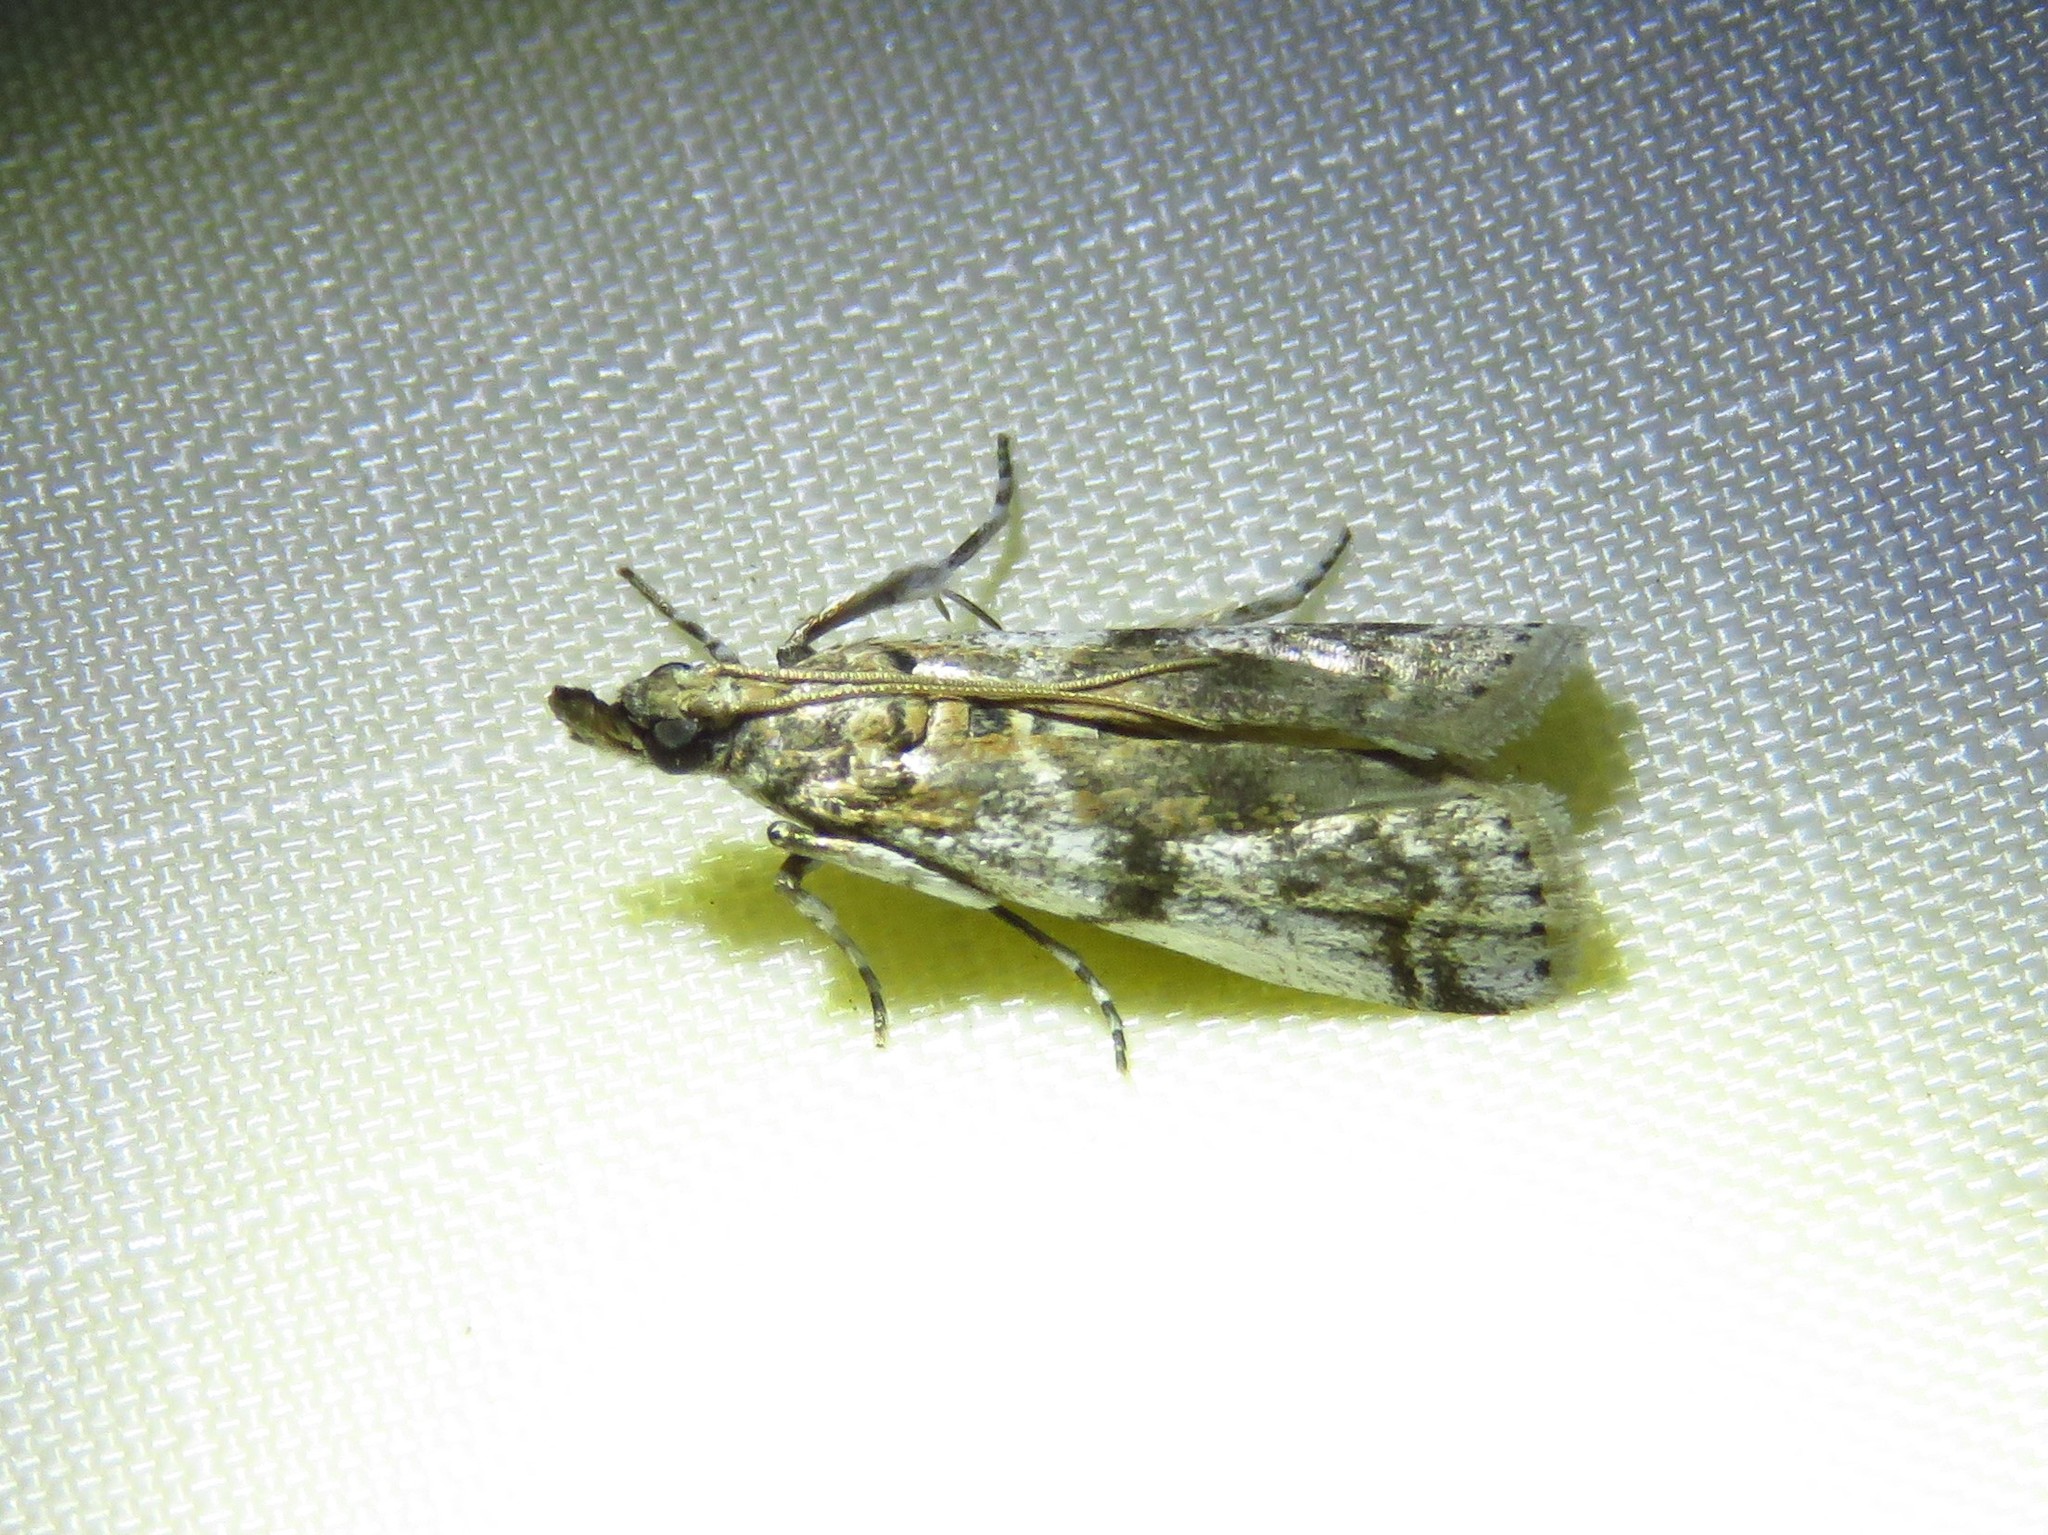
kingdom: Animalia
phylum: Arthropoda
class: Insecta
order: Lepidoptera
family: Pyralidae
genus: Laetilia
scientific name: Laetilia coccidivora
